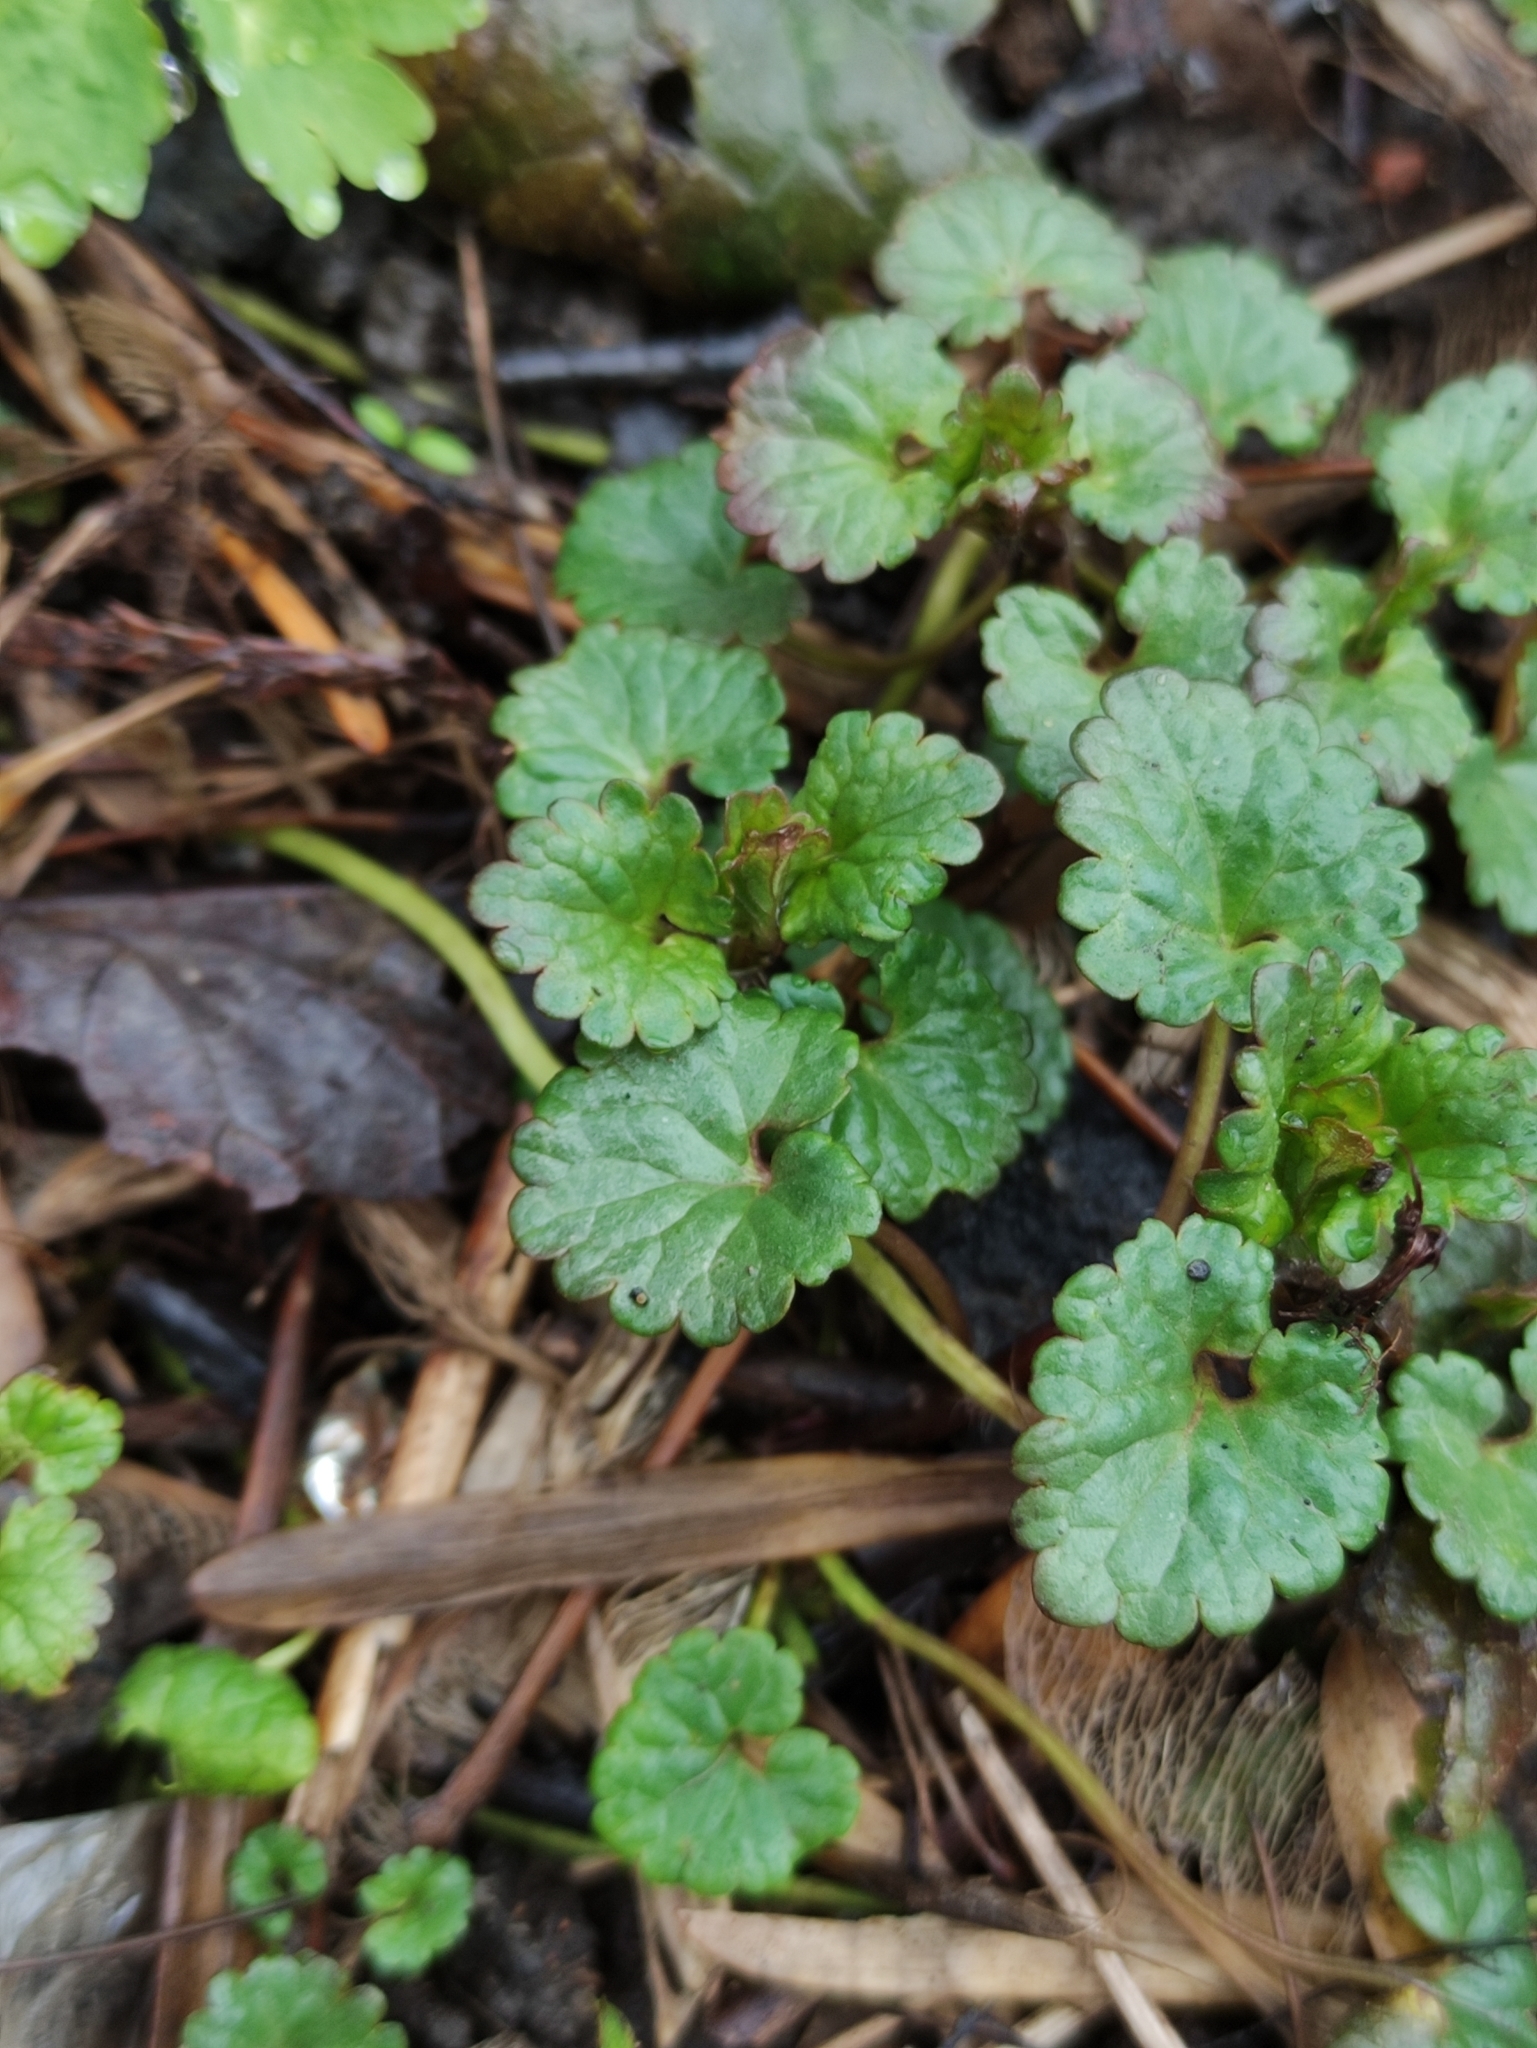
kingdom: Plantae
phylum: Tracheophyta
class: Magnoliopsida
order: Lamiales
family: Lamiaceae
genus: Glechoma
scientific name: Glechoma hederacea
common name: Ground ivy
